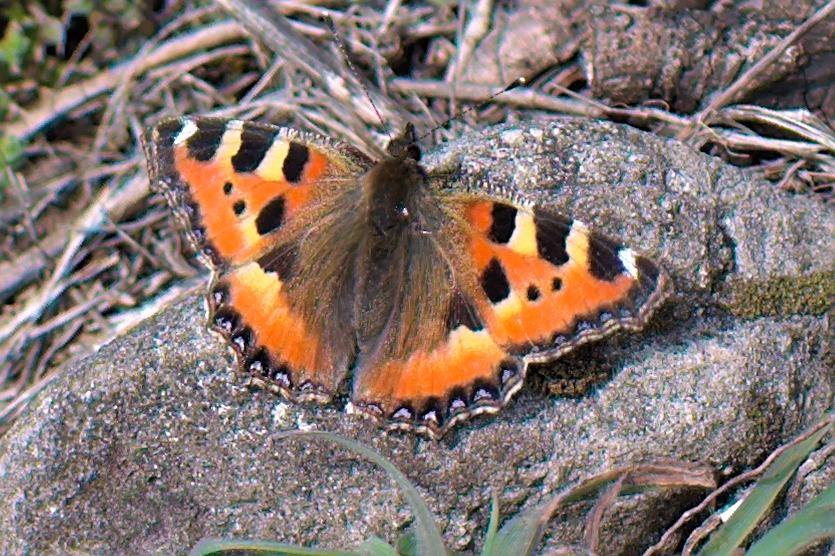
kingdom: Animalia
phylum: Arthropoda
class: Insecta
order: Lepidoptera
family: Nymphalidae
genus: Aglais
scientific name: Aglais urticae
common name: Small tortoiseshell
